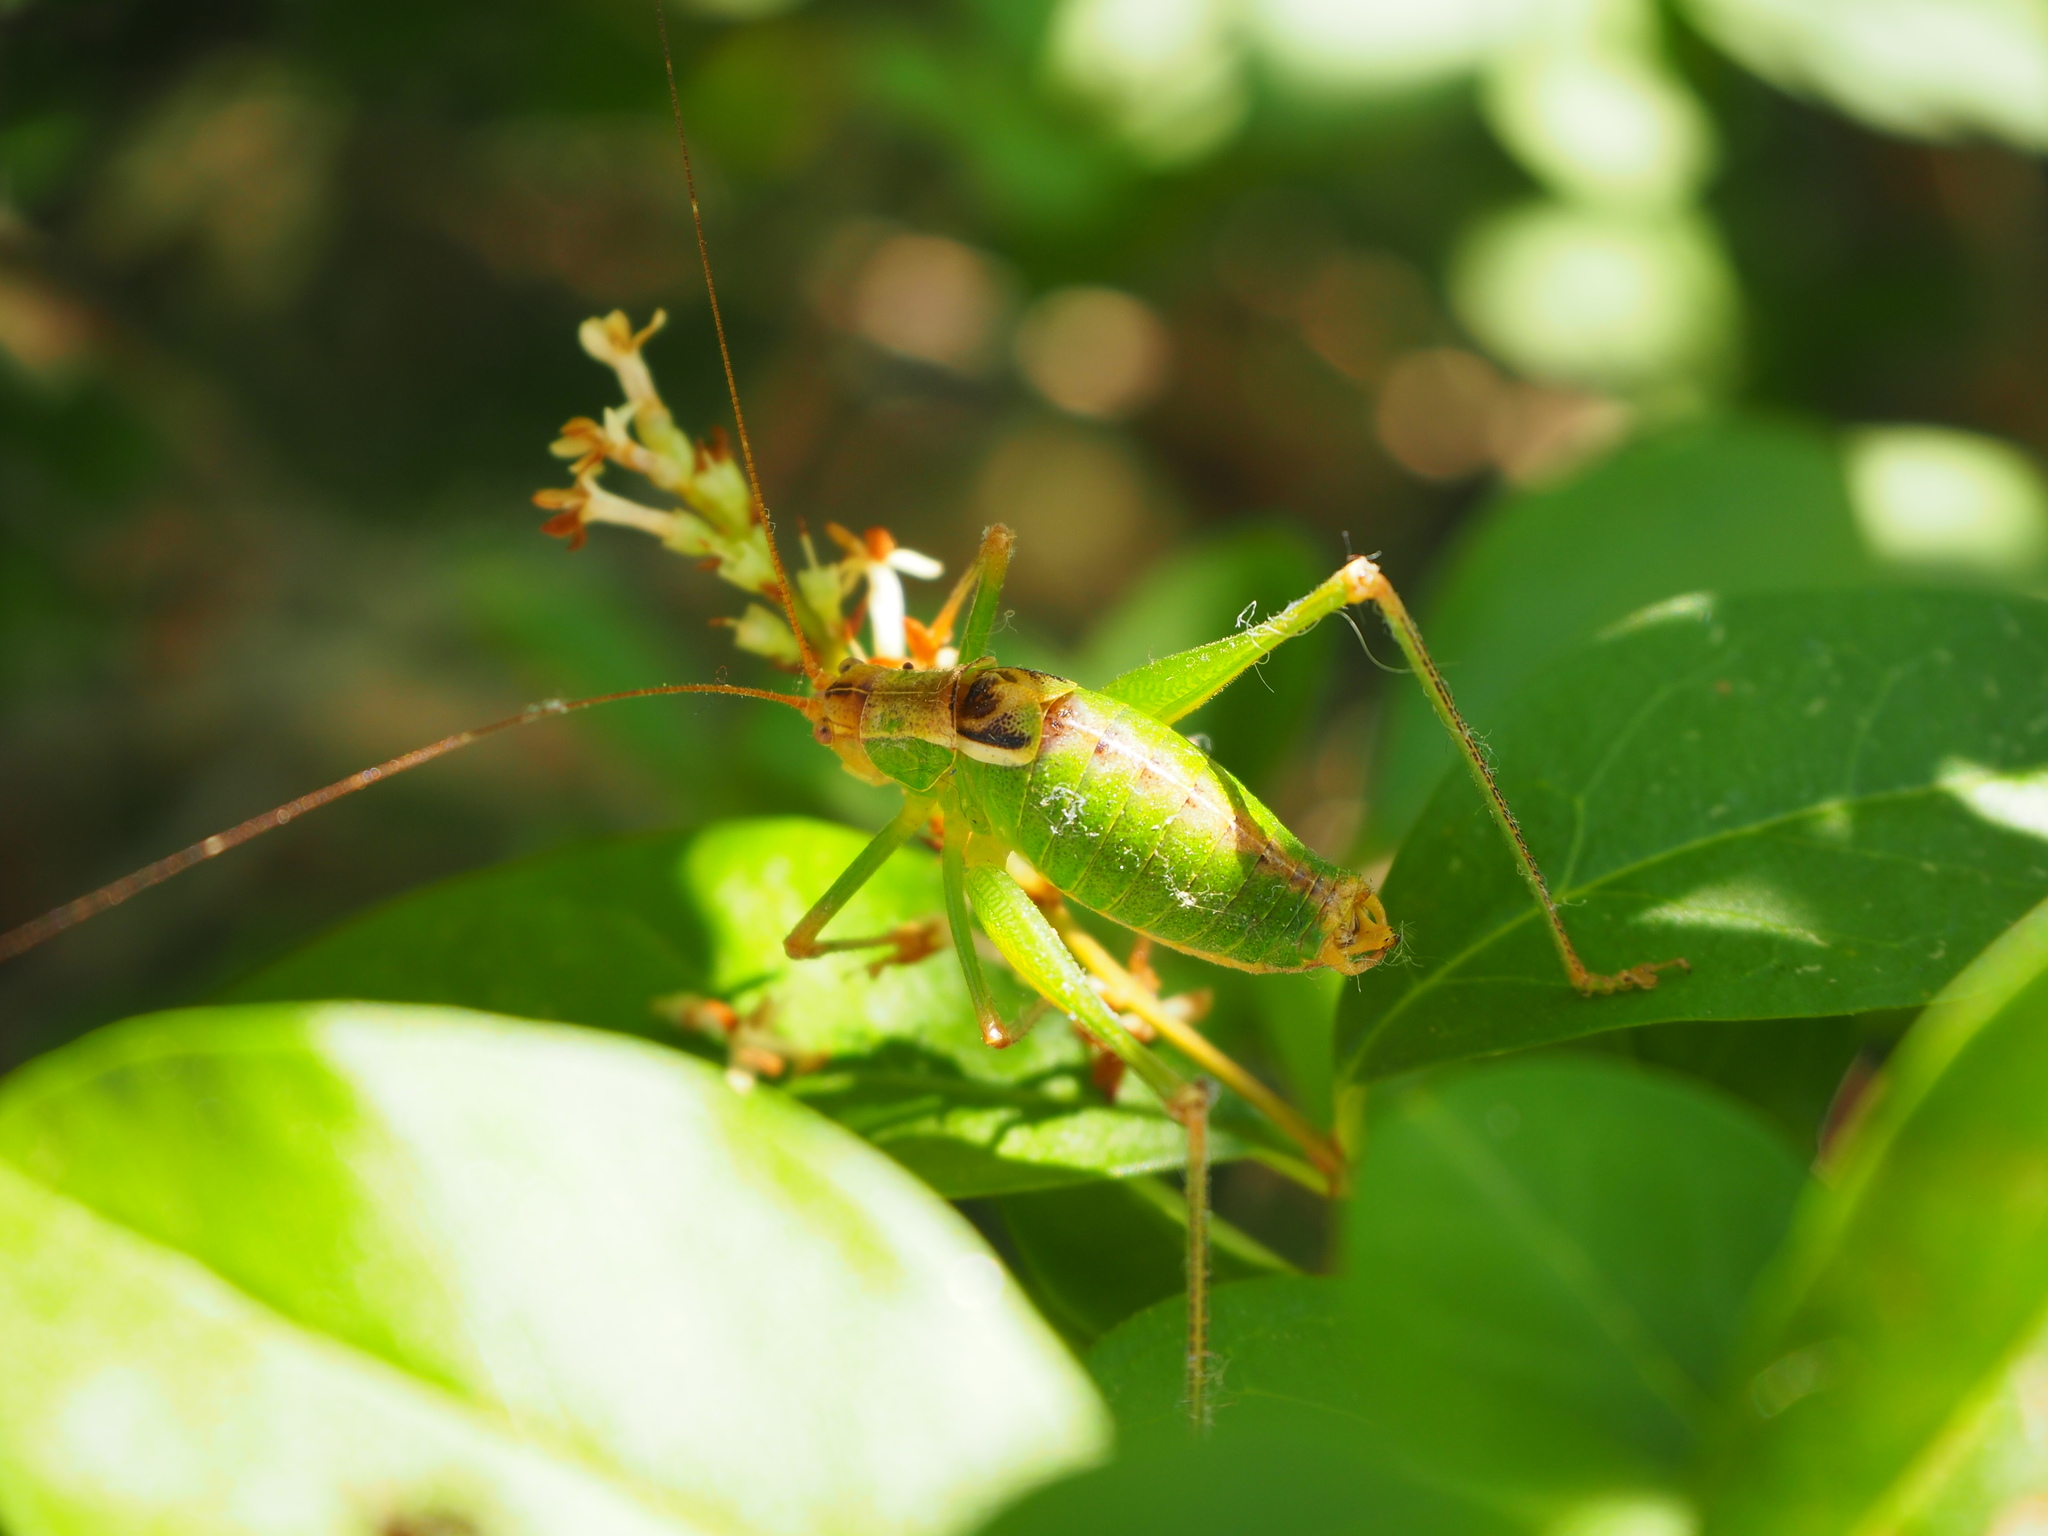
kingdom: Animalia
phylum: Arthropoda
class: Insecta
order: Orthoptera
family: Tettigoniidae
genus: Metaplastes
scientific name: Metaplastes pulchripennis
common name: Italian ornate bush-cricket
